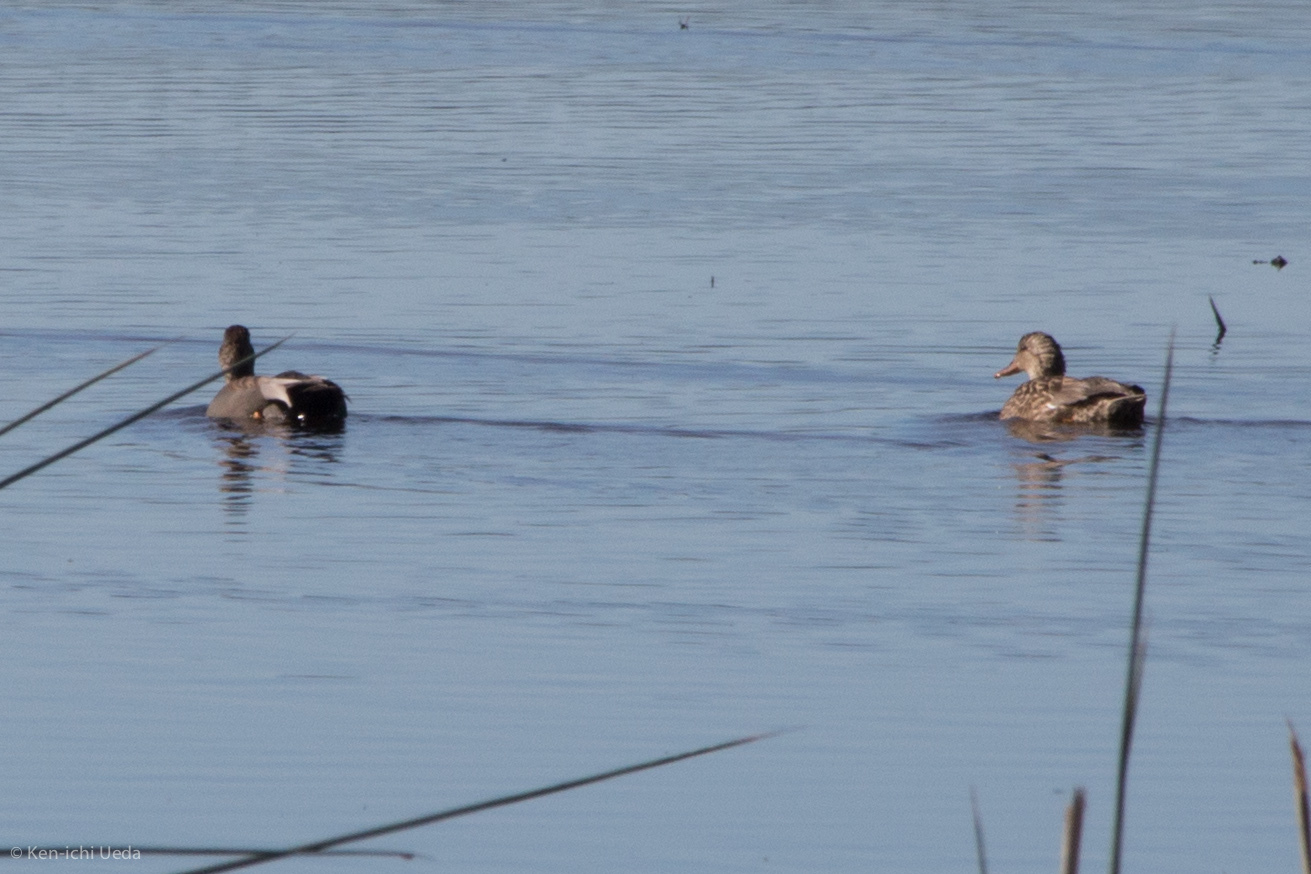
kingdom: Animalia
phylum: Chordata
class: Aves
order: Anseriformes
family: Anatidae
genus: Mareca
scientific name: Mareca strepera
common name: Gadwall
